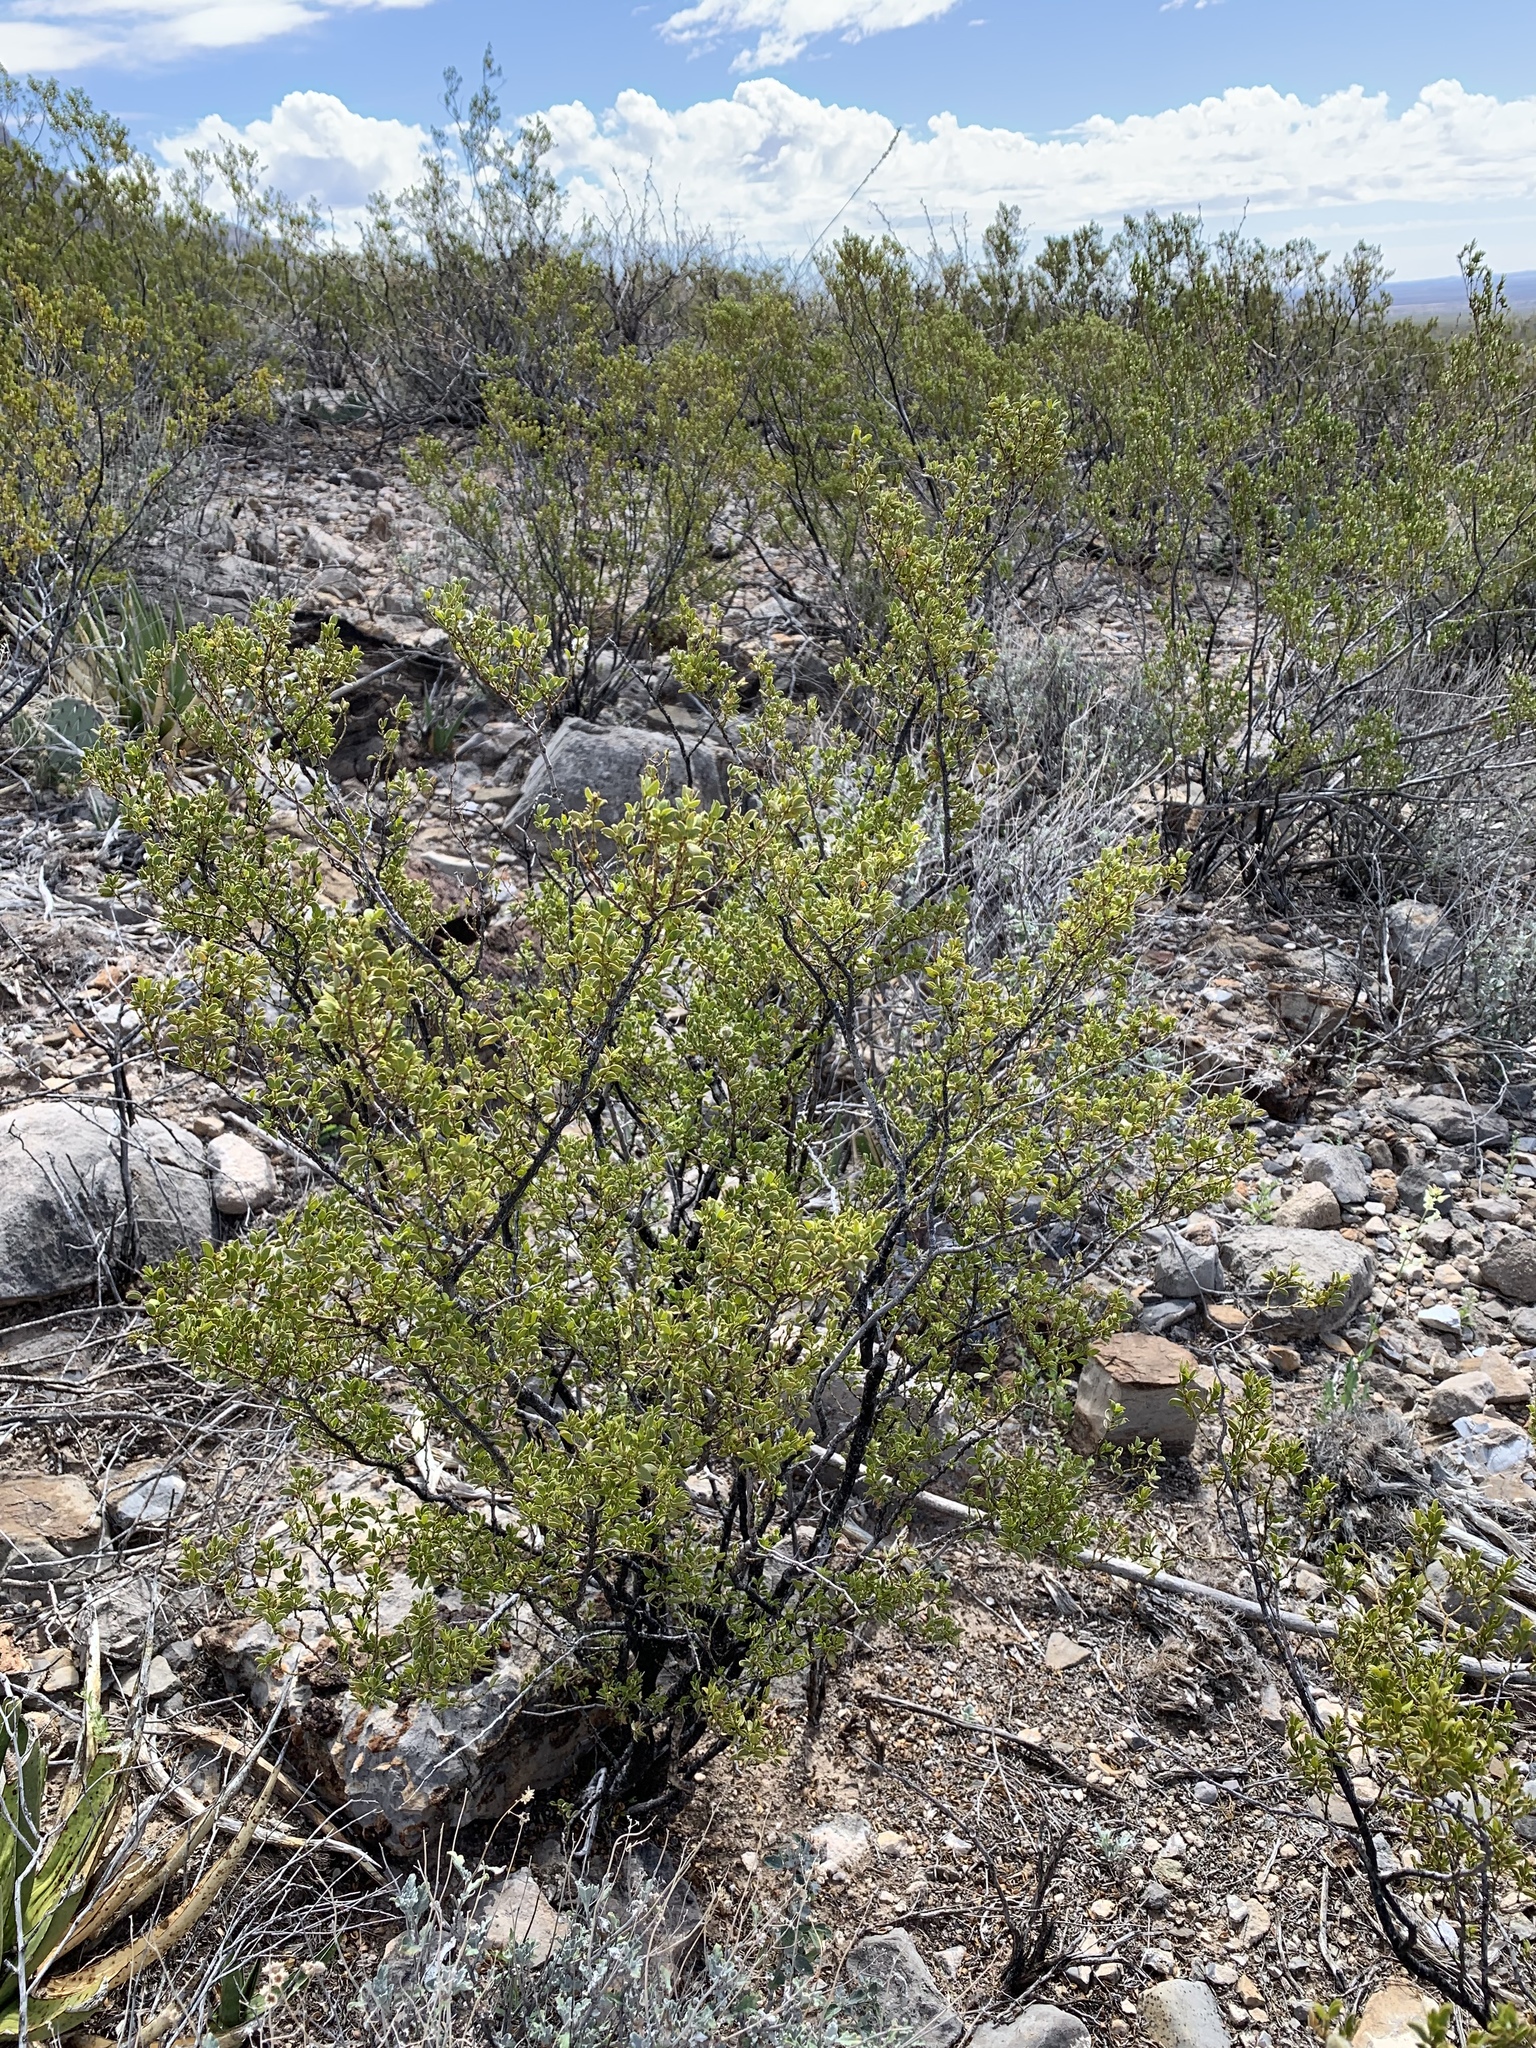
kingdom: Plantae
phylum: Tracheophyta
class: Magnoliopsida
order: Zygophyllales
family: Zygophyllaceae
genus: Larrea
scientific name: Larrea tridentata
